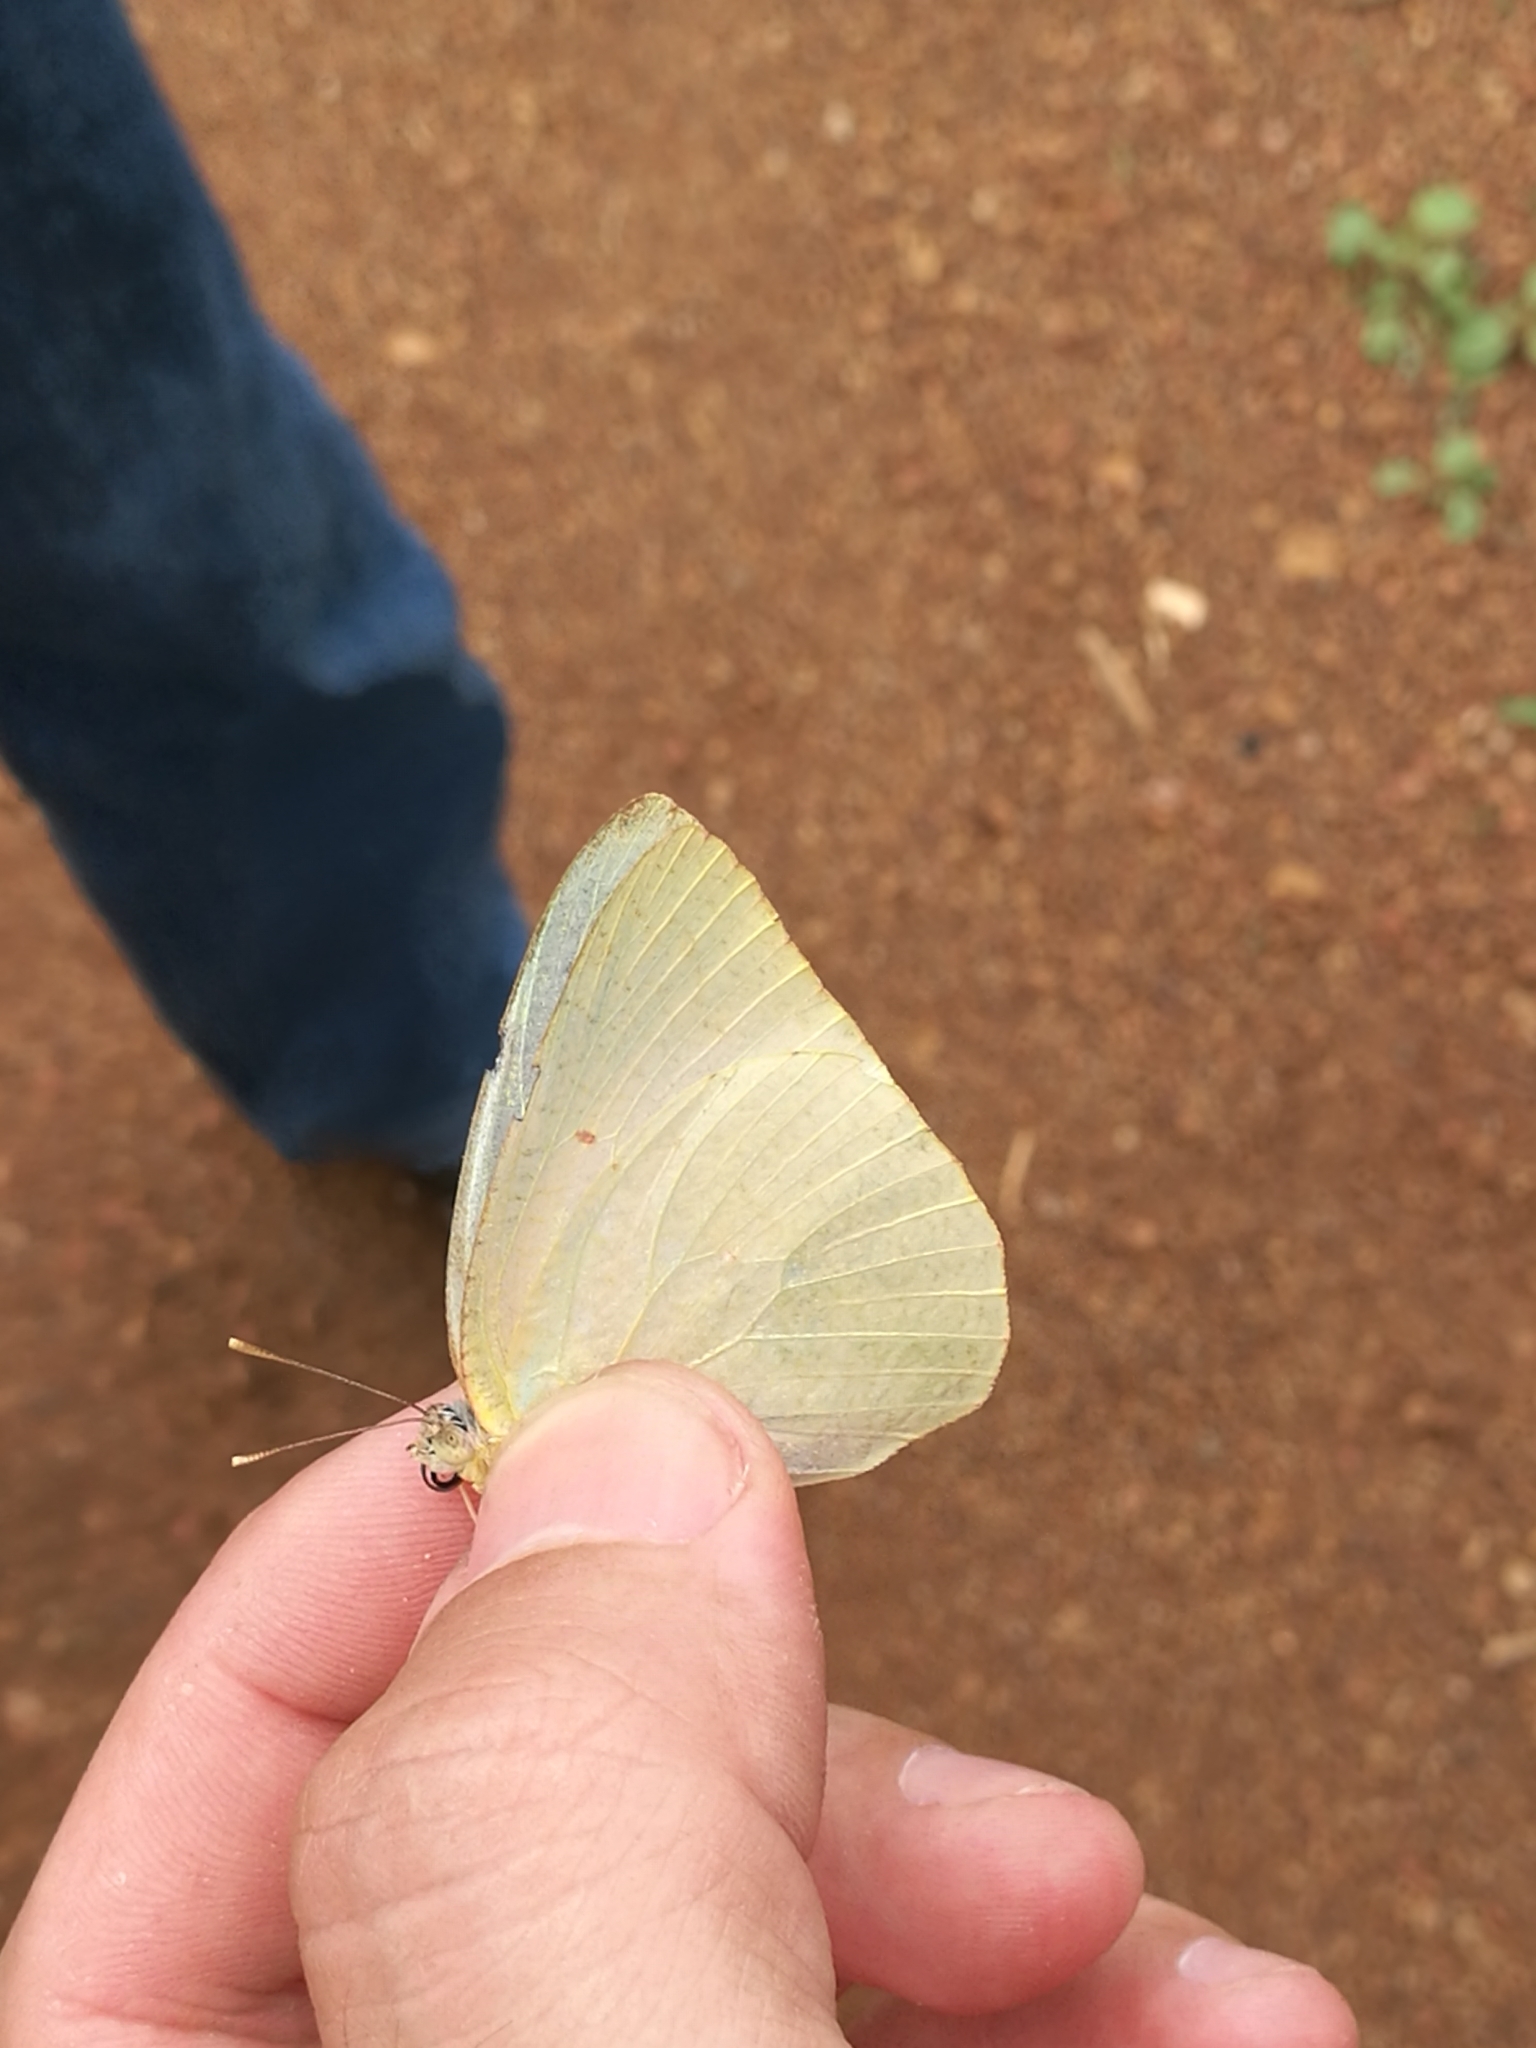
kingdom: Animalia
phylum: Arthropoda
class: Insecta
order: Lepidoptera
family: Pieridae
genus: Catopsilia
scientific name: Catopsilia florella
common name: African migrant
